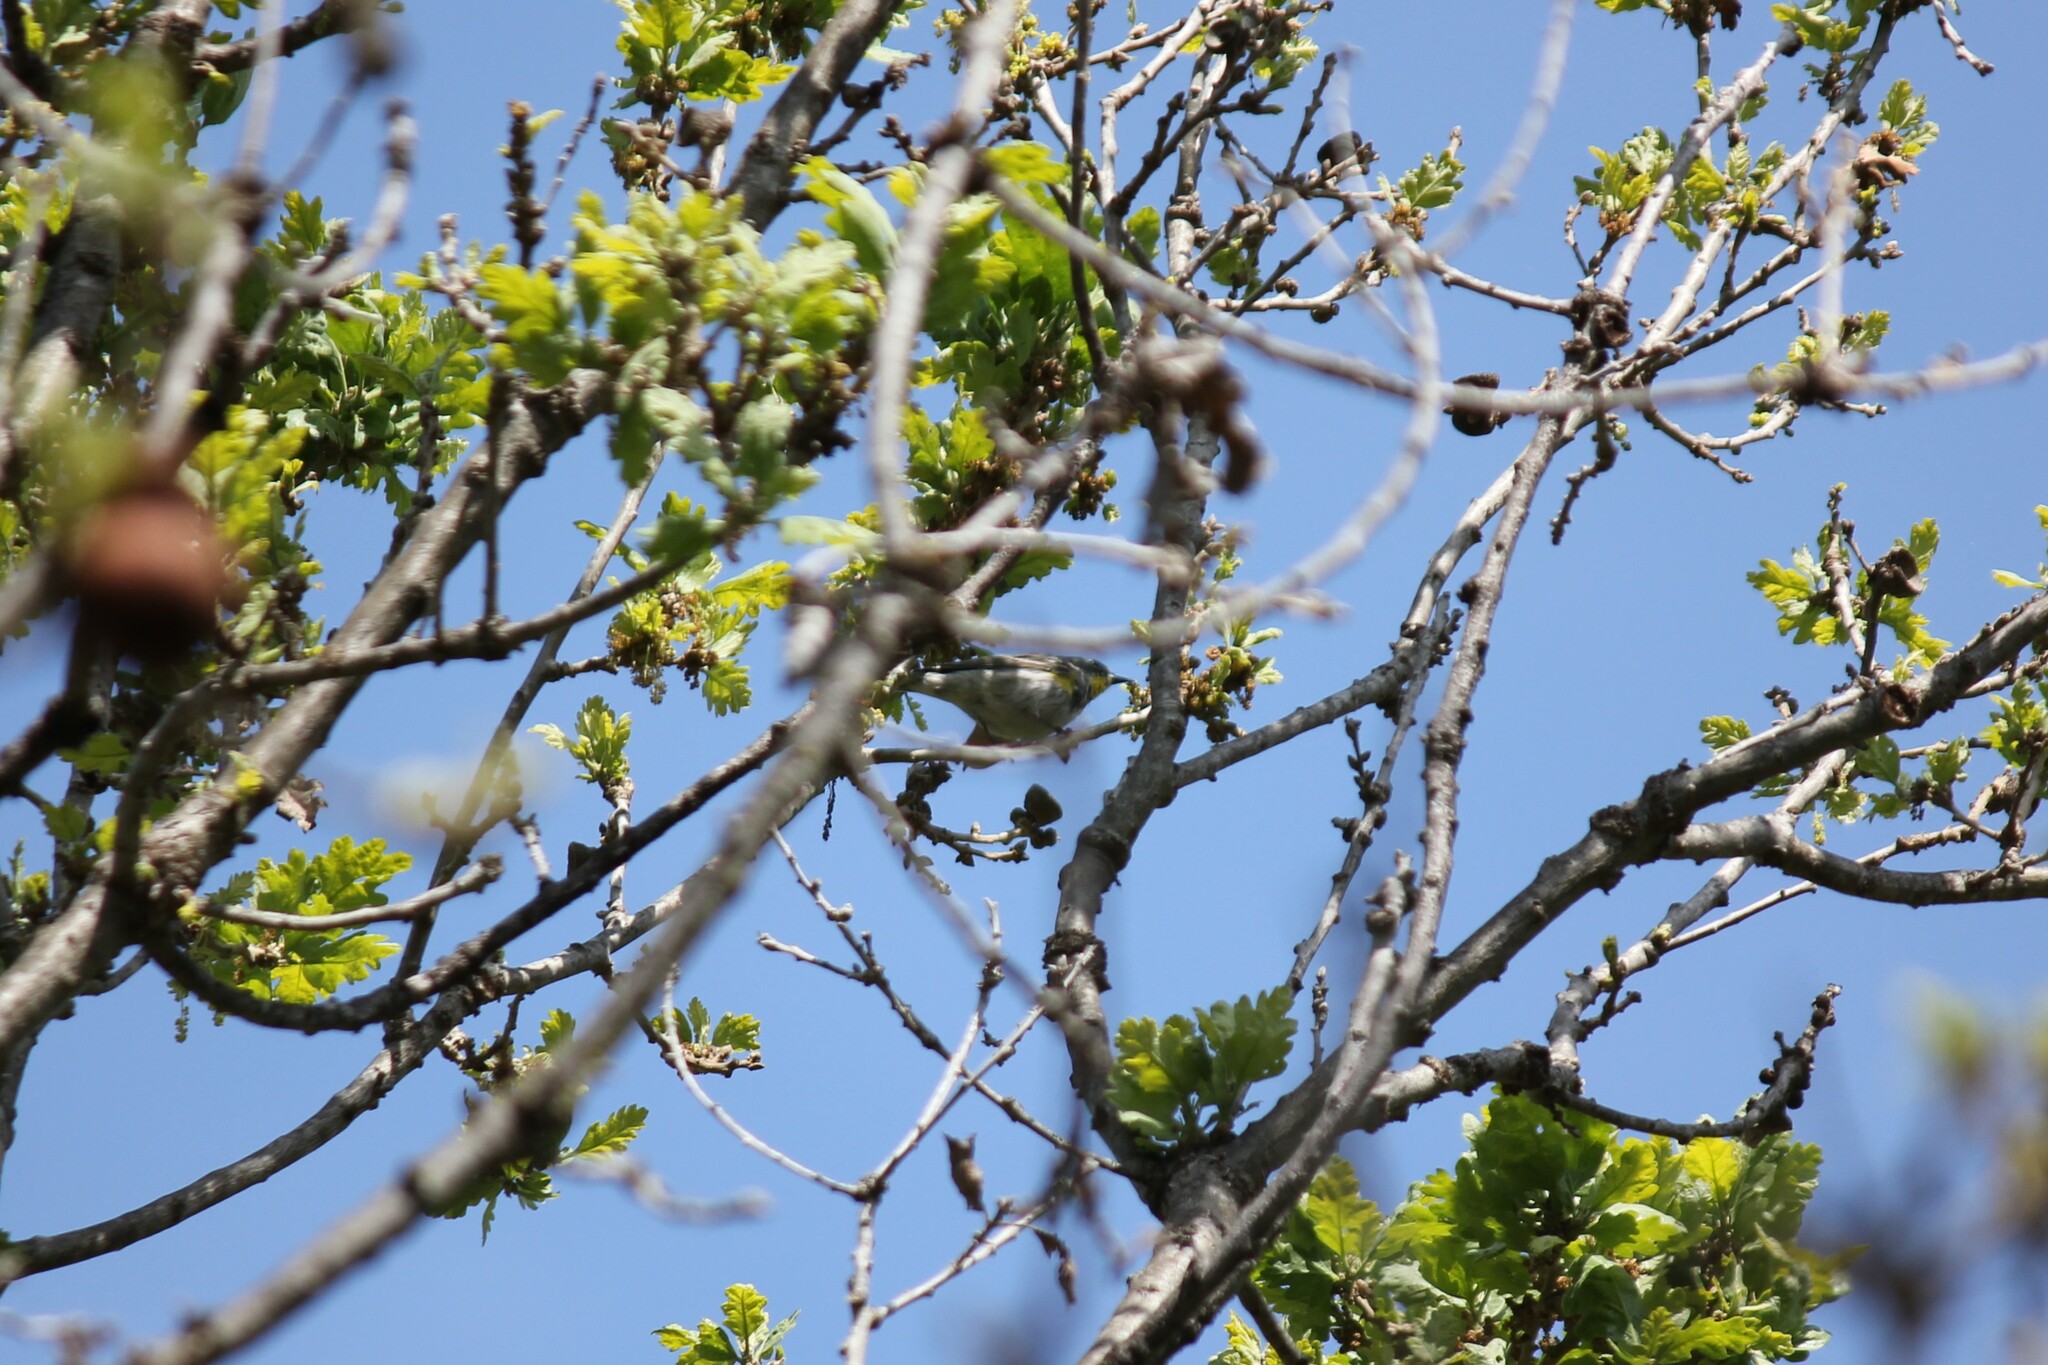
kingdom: Animalia
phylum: Chordata
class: Aves
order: Passeriformes
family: Parulidae
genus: Setophaga
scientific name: Setophaga auduboni
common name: Audubon's warbler
